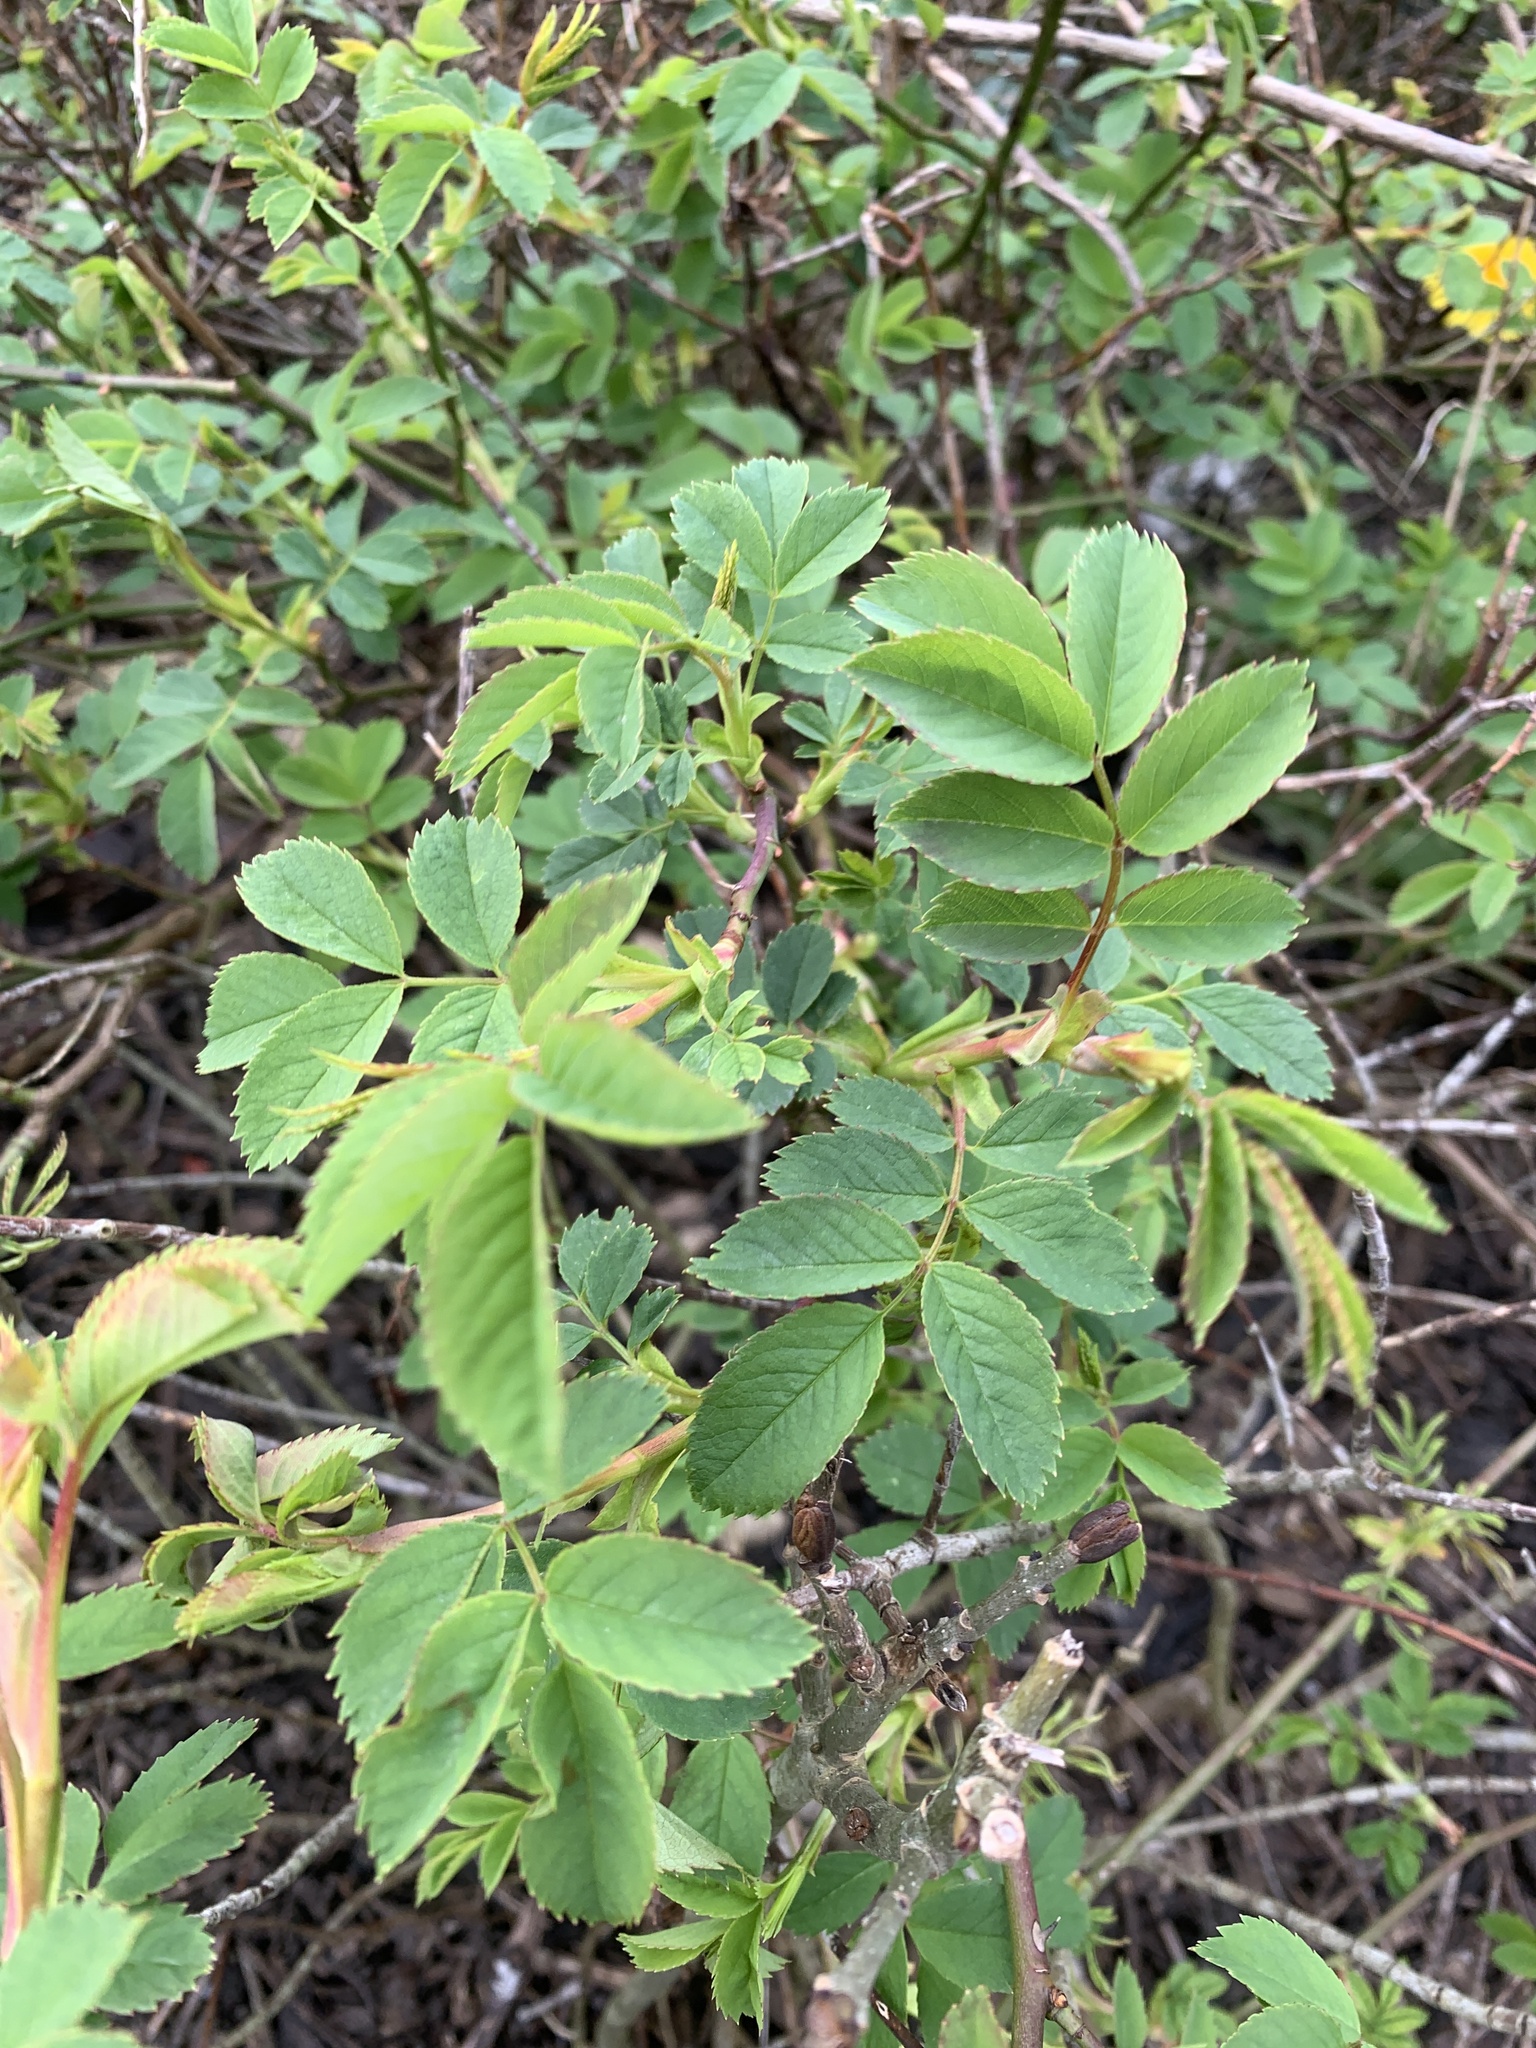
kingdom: Plantae
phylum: Tracheophyta
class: Magnoliopsida
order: Rosales
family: Rosaceae
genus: Rosa
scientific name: Rosa canina
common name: Dog rose
